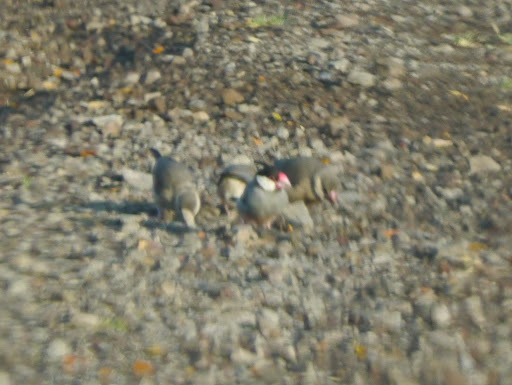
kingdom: Animalia
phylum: Chordata
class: Aves
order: Passeriformes
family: Estrildidae
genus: Lonchura
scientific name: Lonchura oryzivora
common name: Java sparrow
